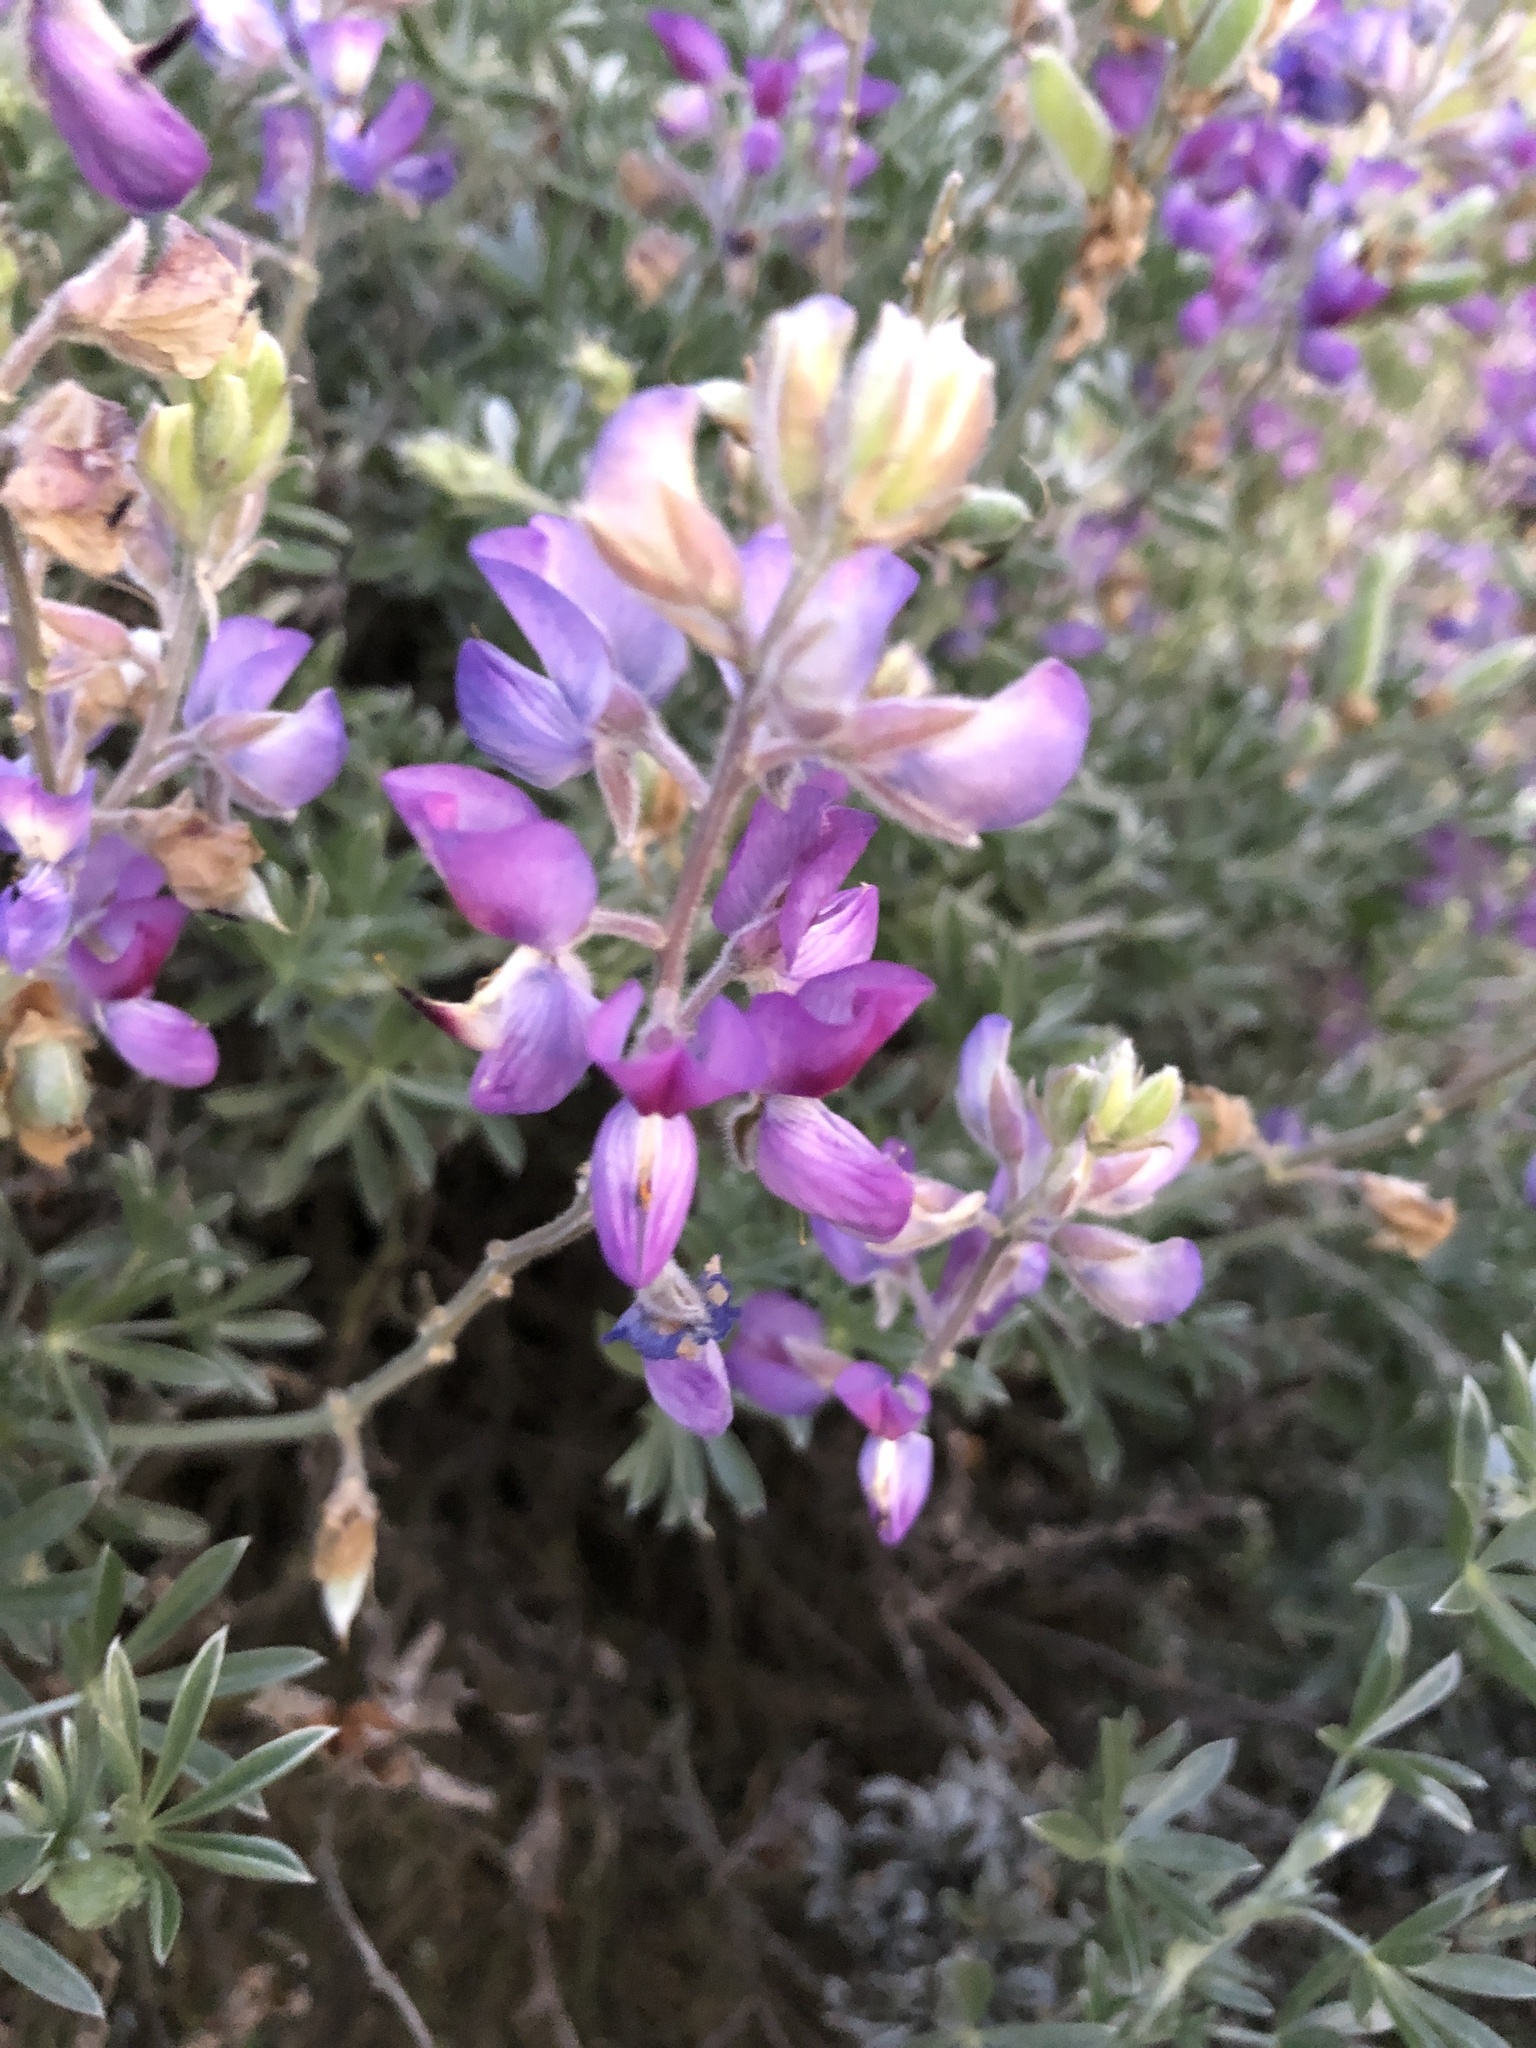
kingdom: Plantae
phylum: Tracheophyta
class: Magnoliopsida
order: Fabales
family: Fabaceae
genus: Lupinus
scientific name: Lupinus chamissonis
